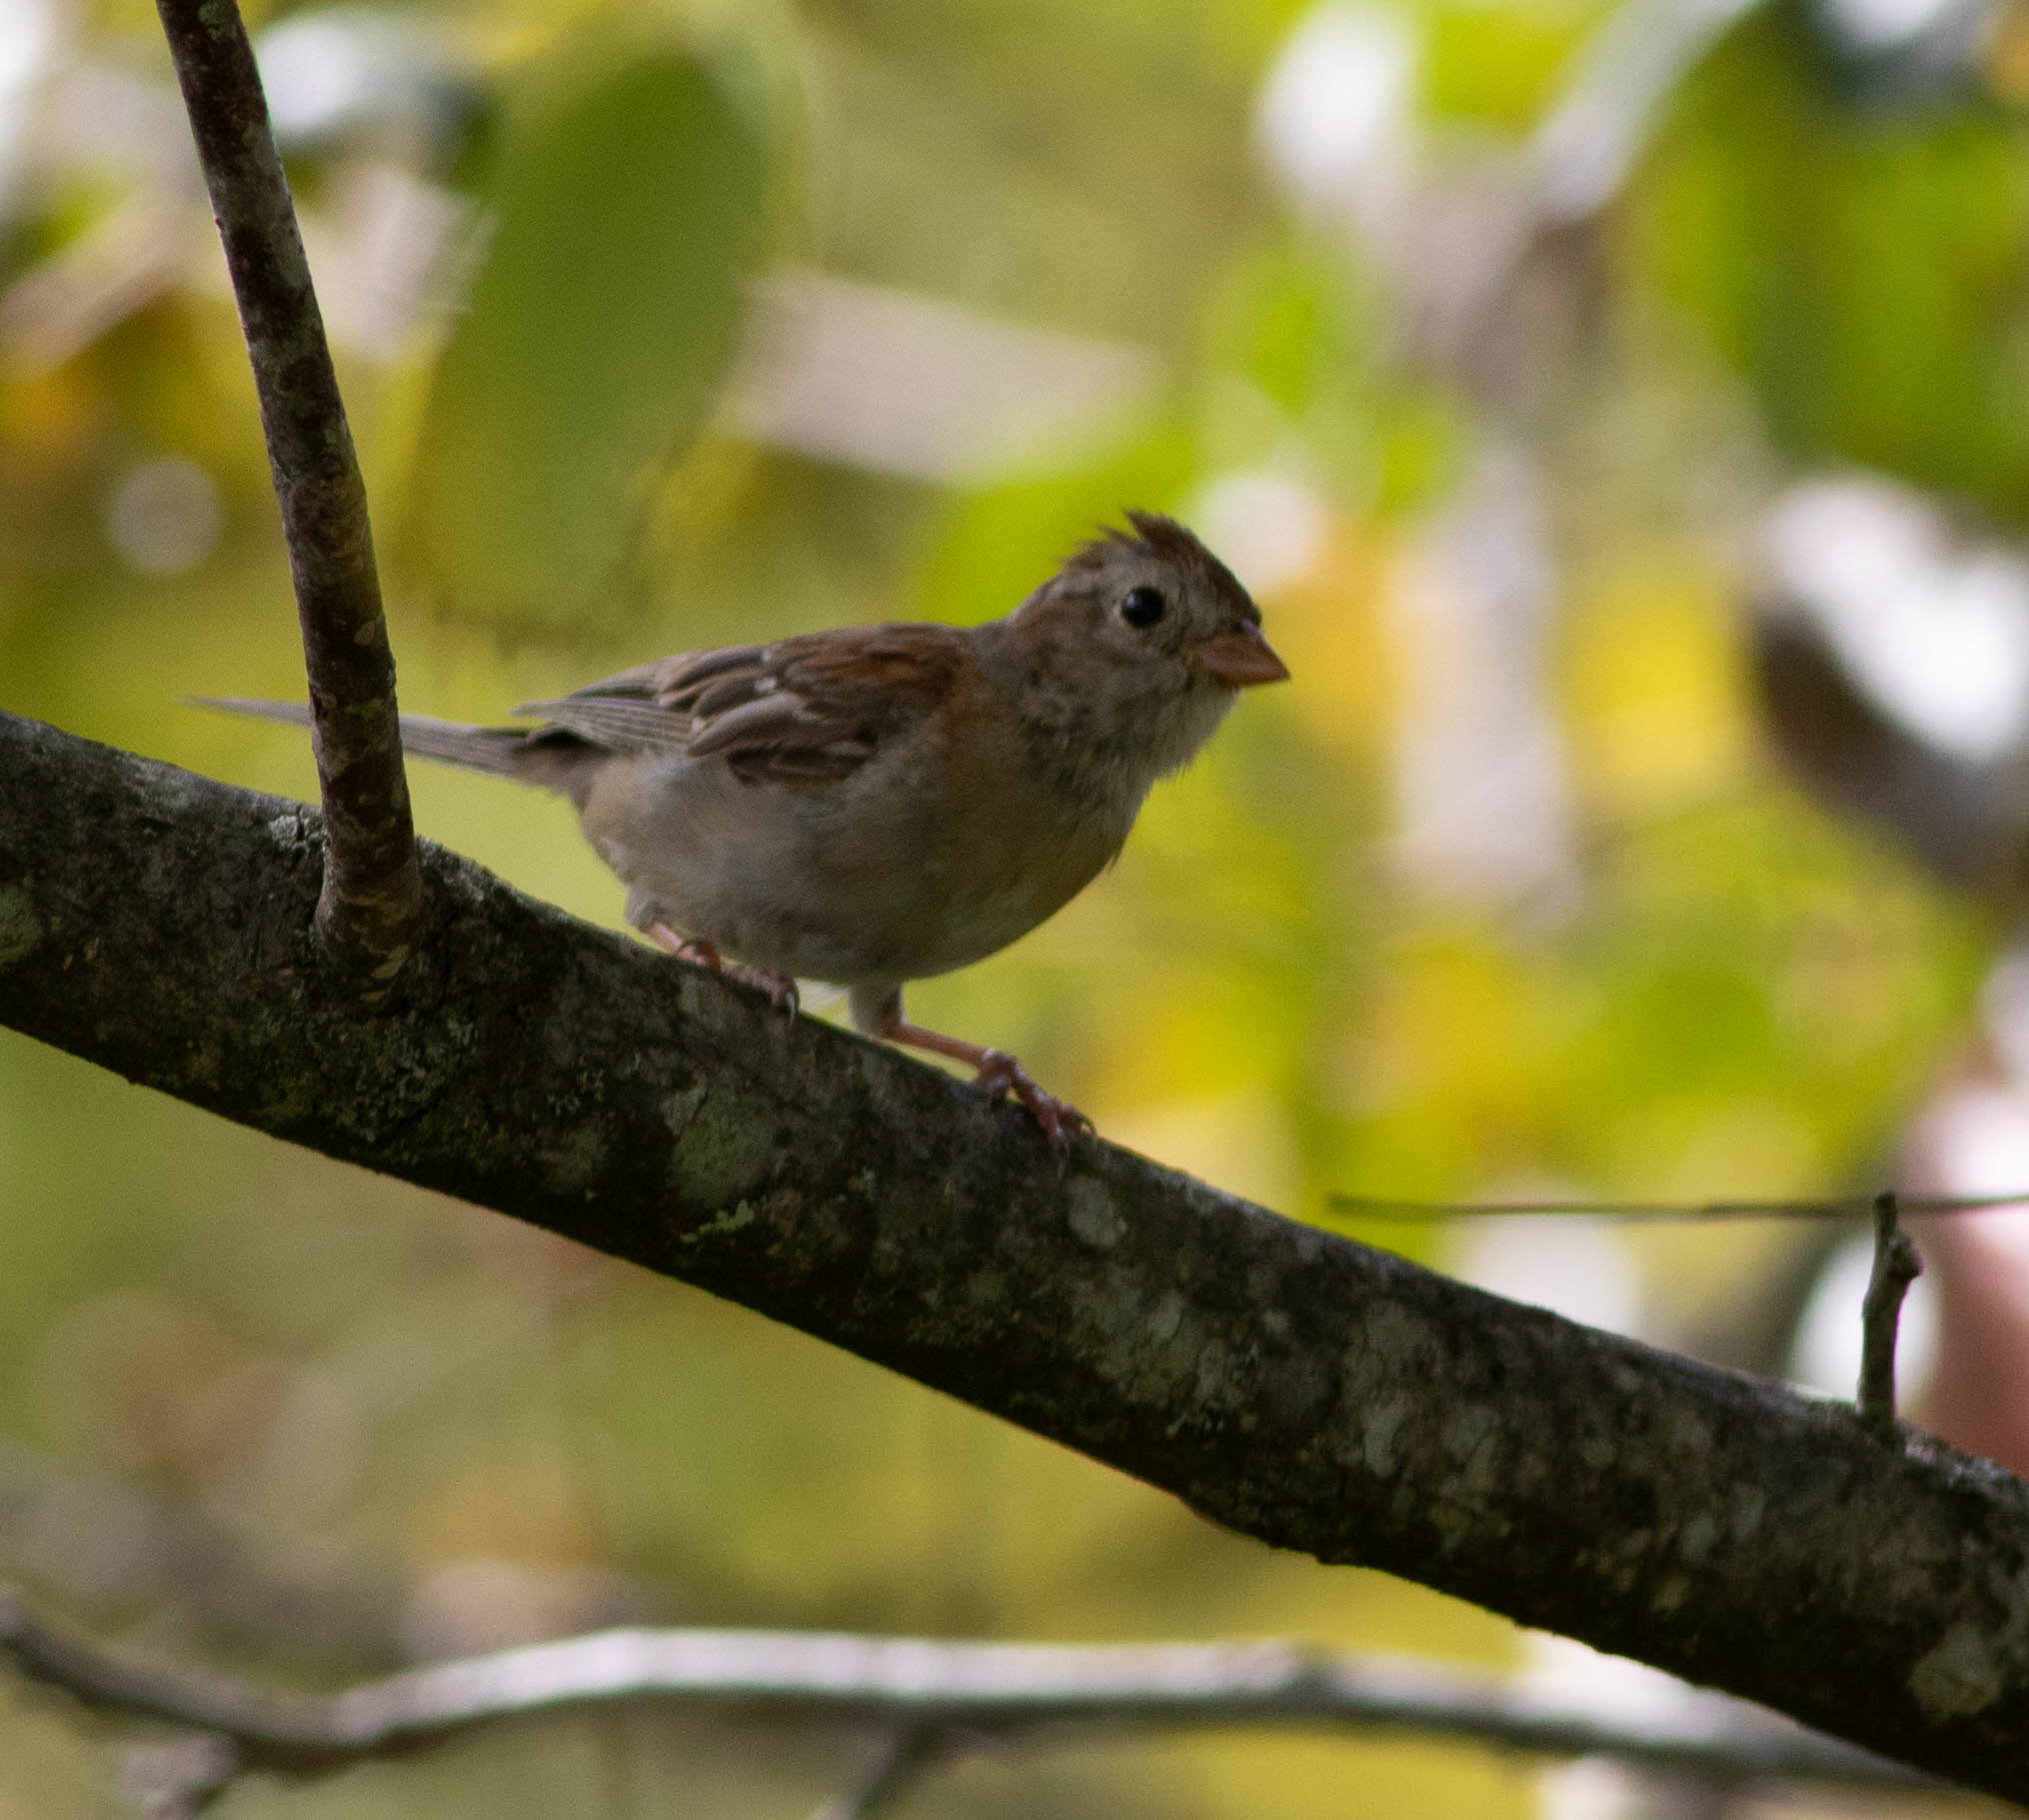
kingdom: Animalia
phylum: Chordata
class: Aves
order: Passeriformes
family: Passerellidae
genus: Spizella
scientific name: Spizella pusilla
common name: Field sparrow
